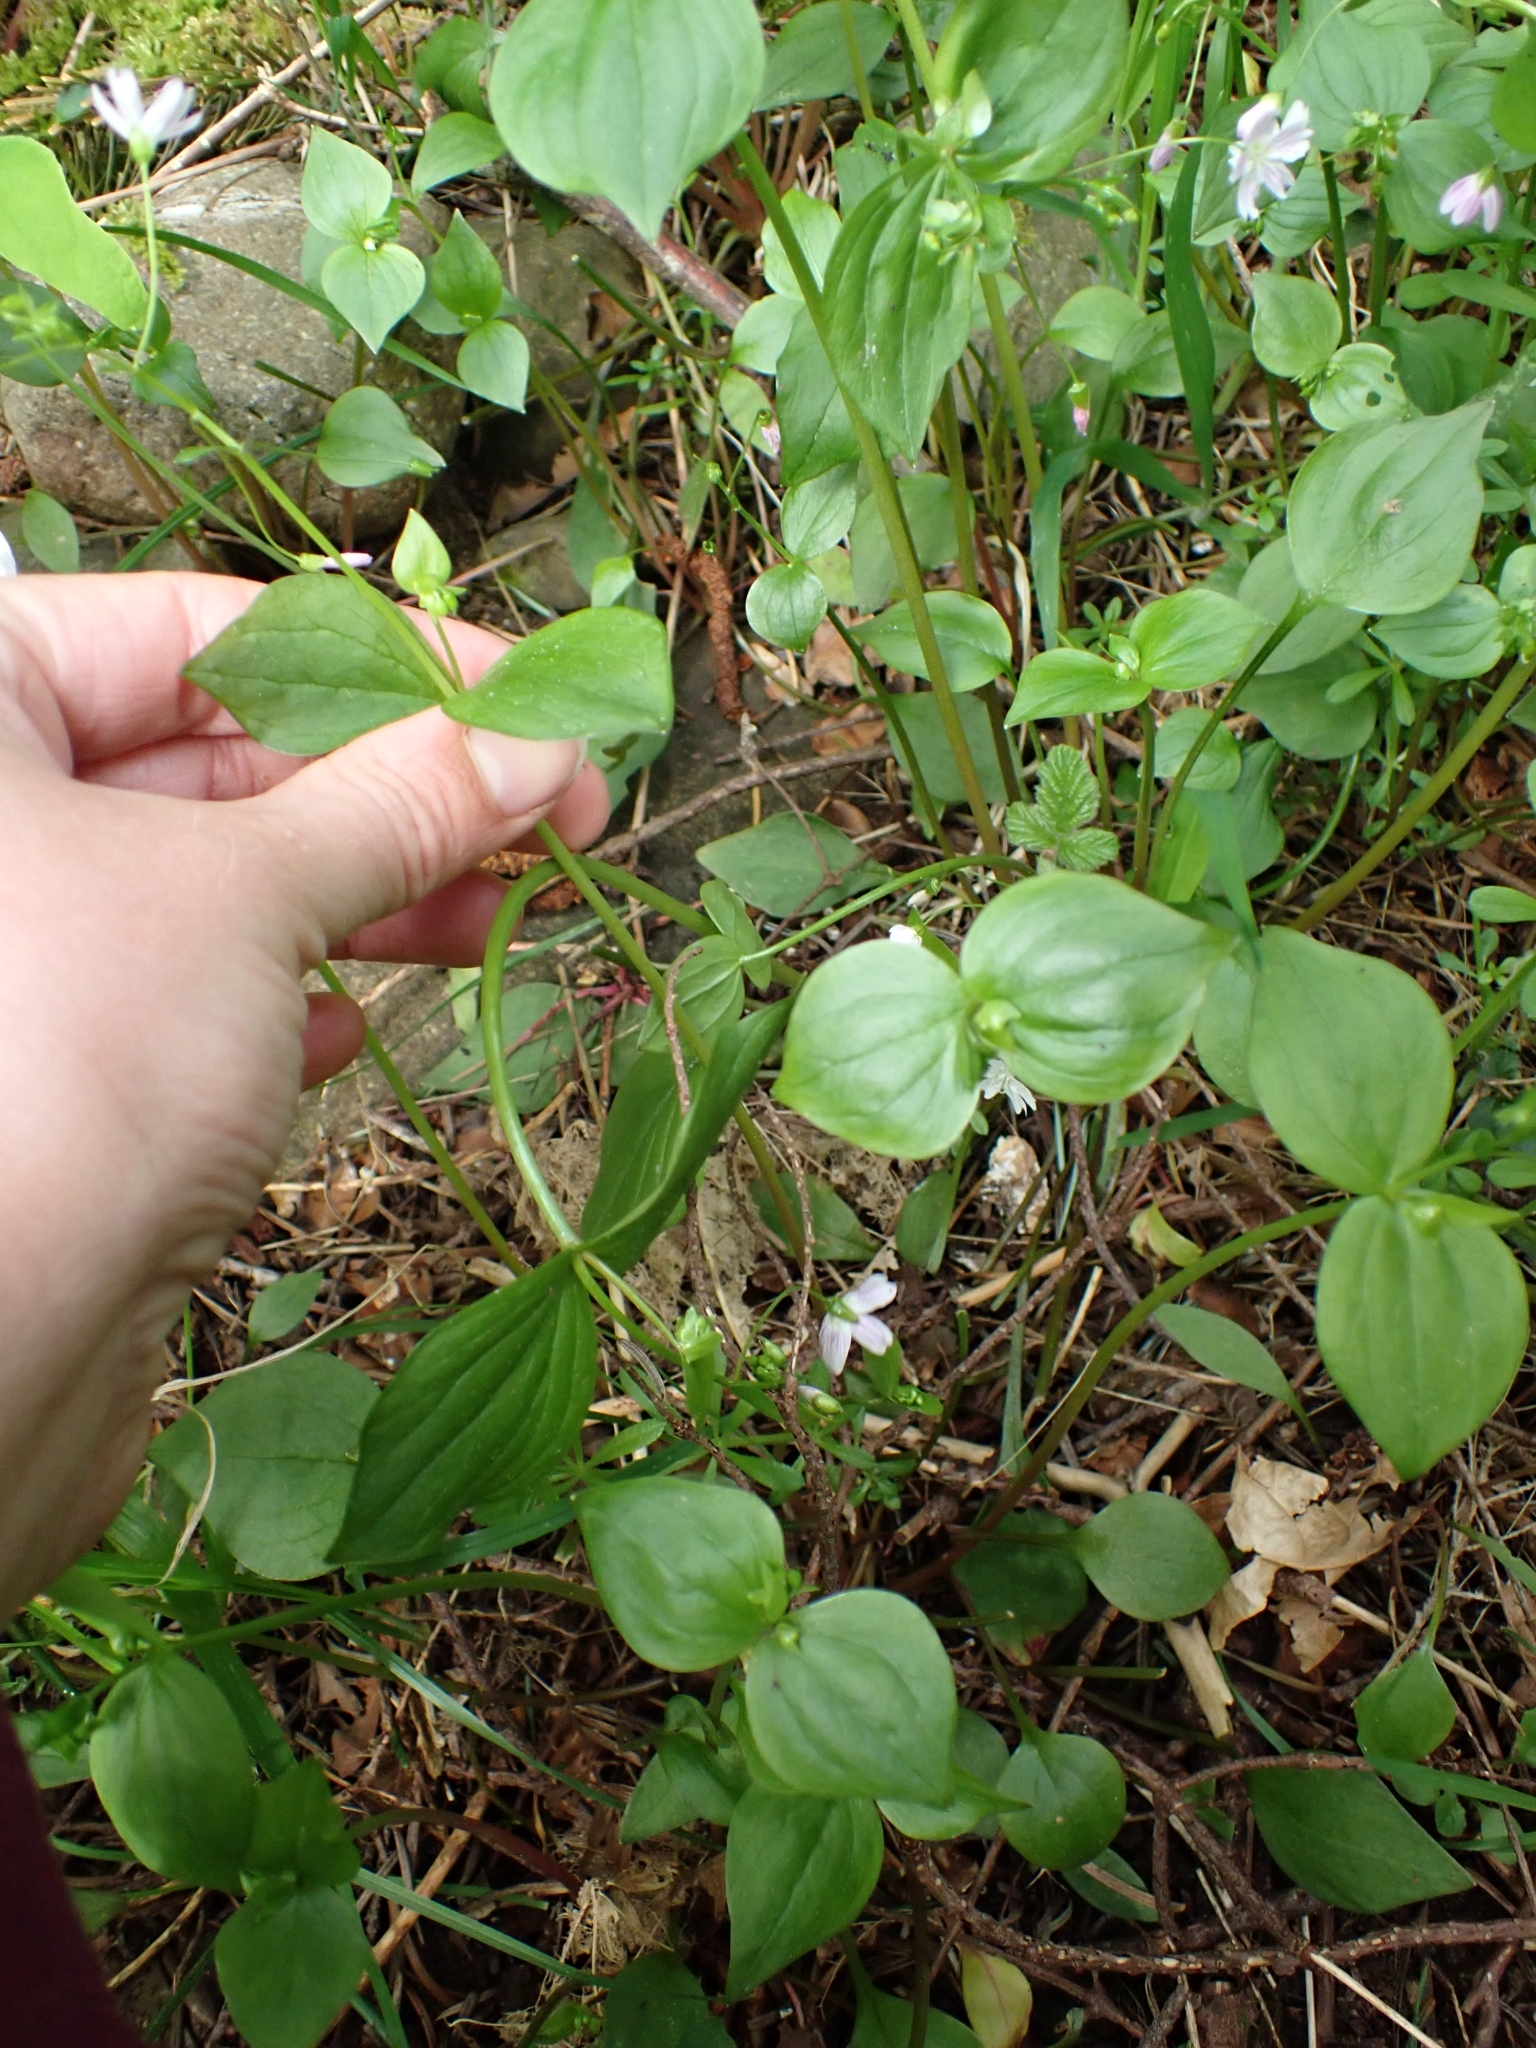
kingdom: Plantae
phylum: Tracheophyta
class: Magnoliopsida
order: Caryophyllales
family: Montiaceae
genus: Claytonia
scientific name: Claytonia sibirica
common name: Pink purslane
